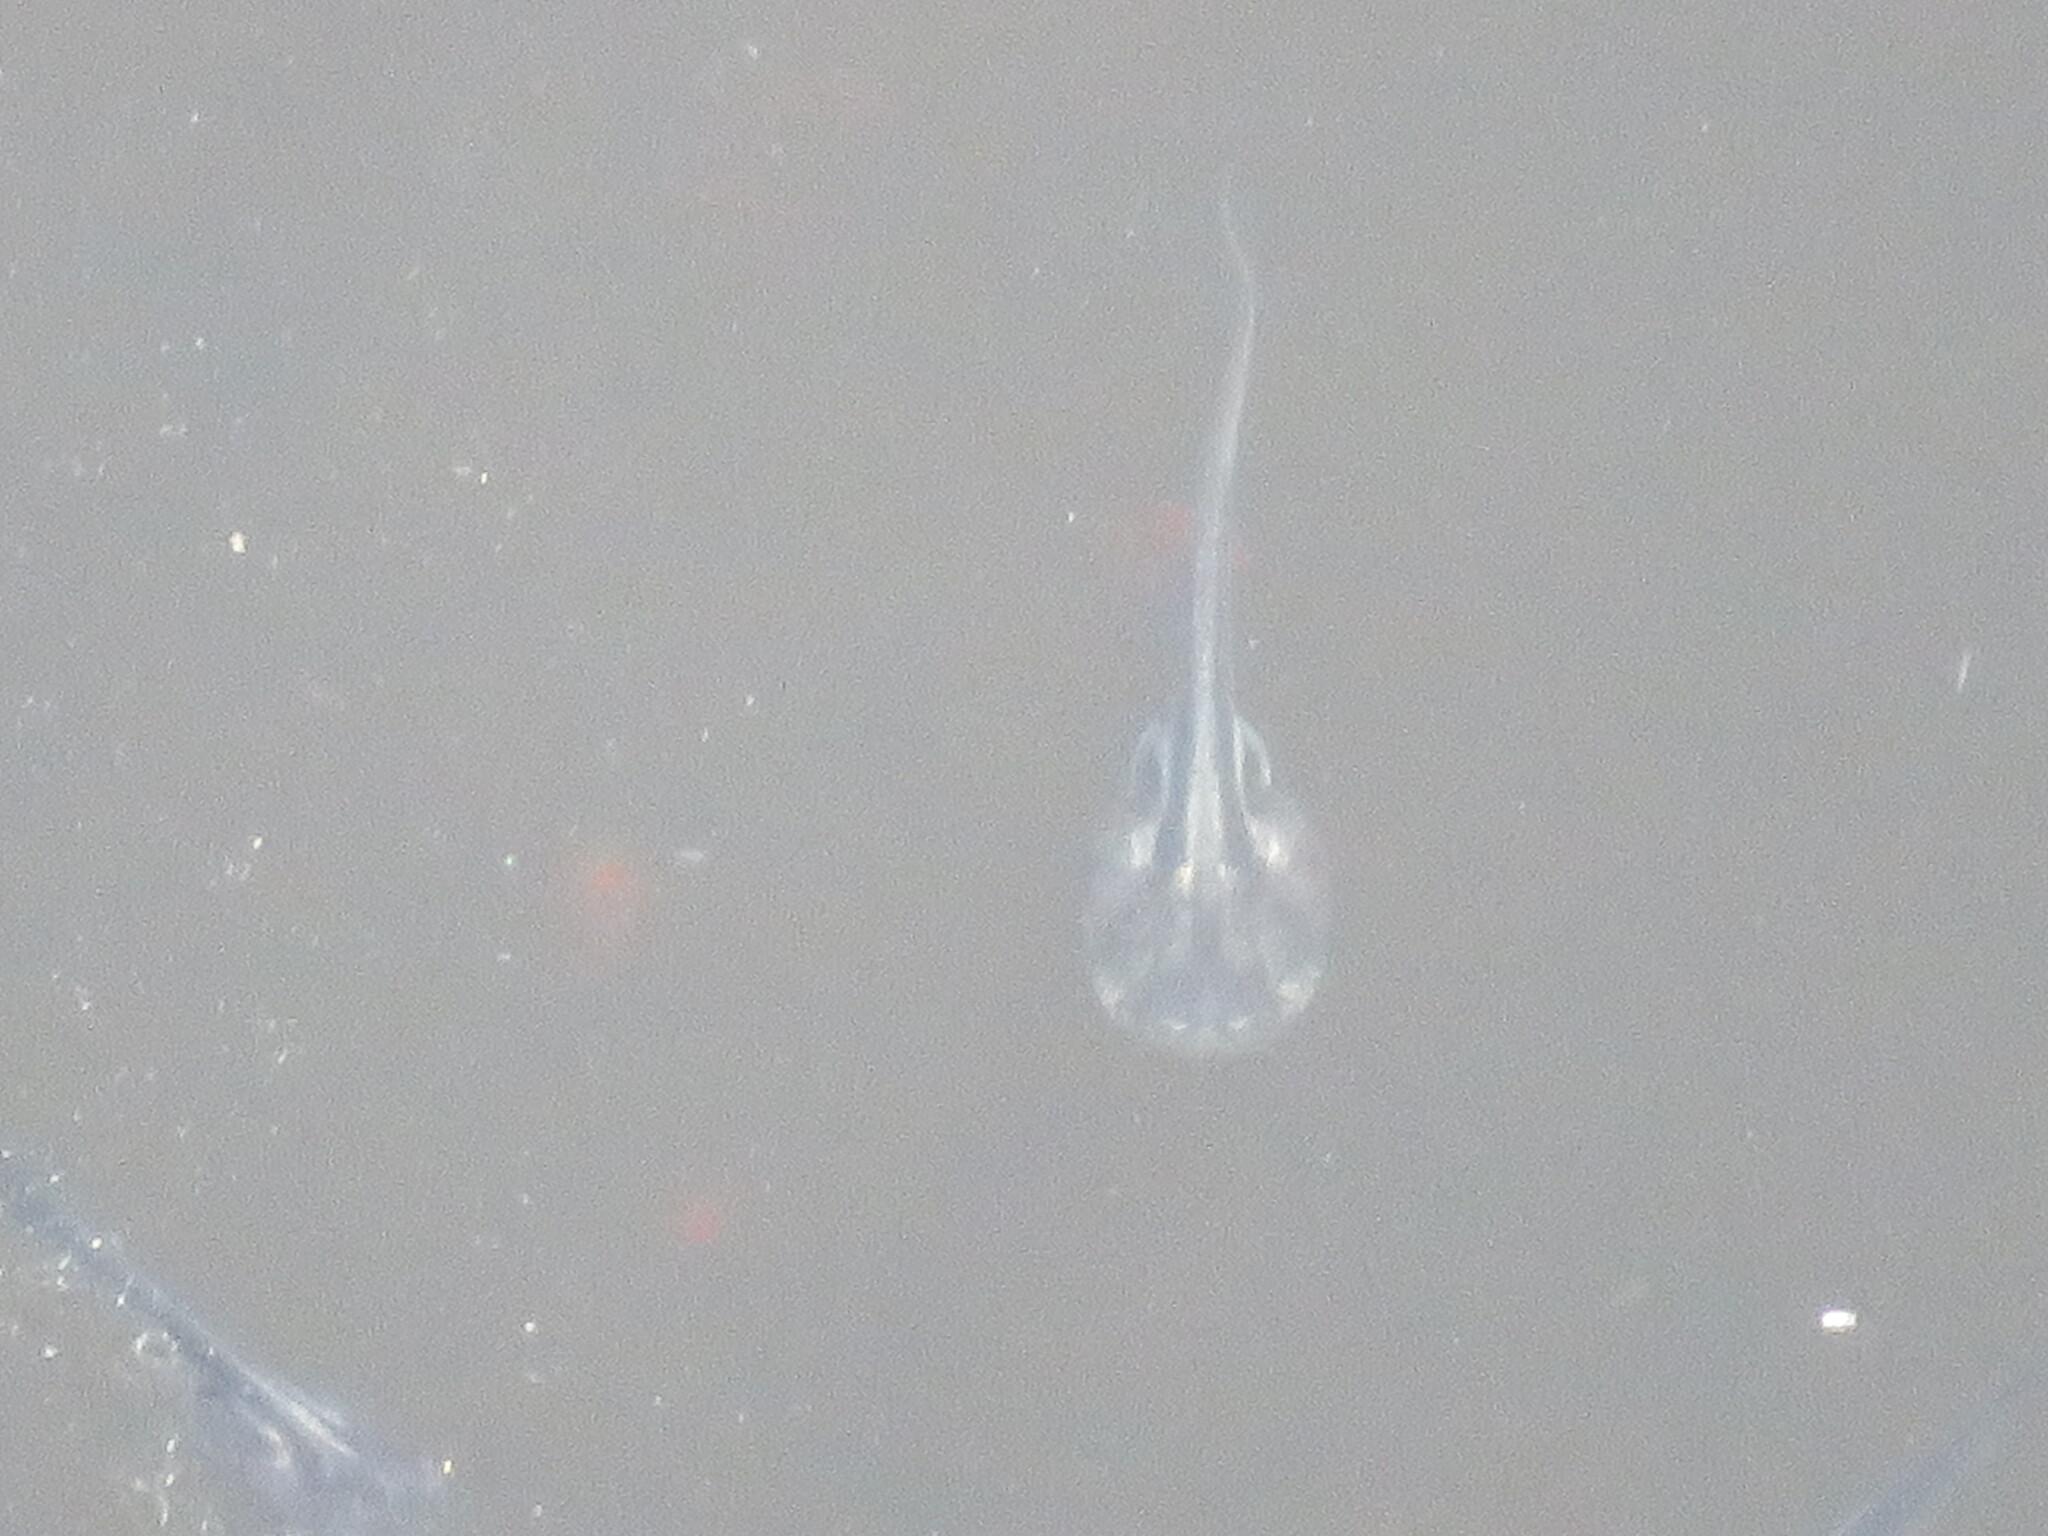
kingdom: Animalia
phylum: Chordata
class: Amphibia
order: Anura
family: Pipidae
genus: Xenopus
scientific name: Xenopus laevis
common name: African clawed frog
